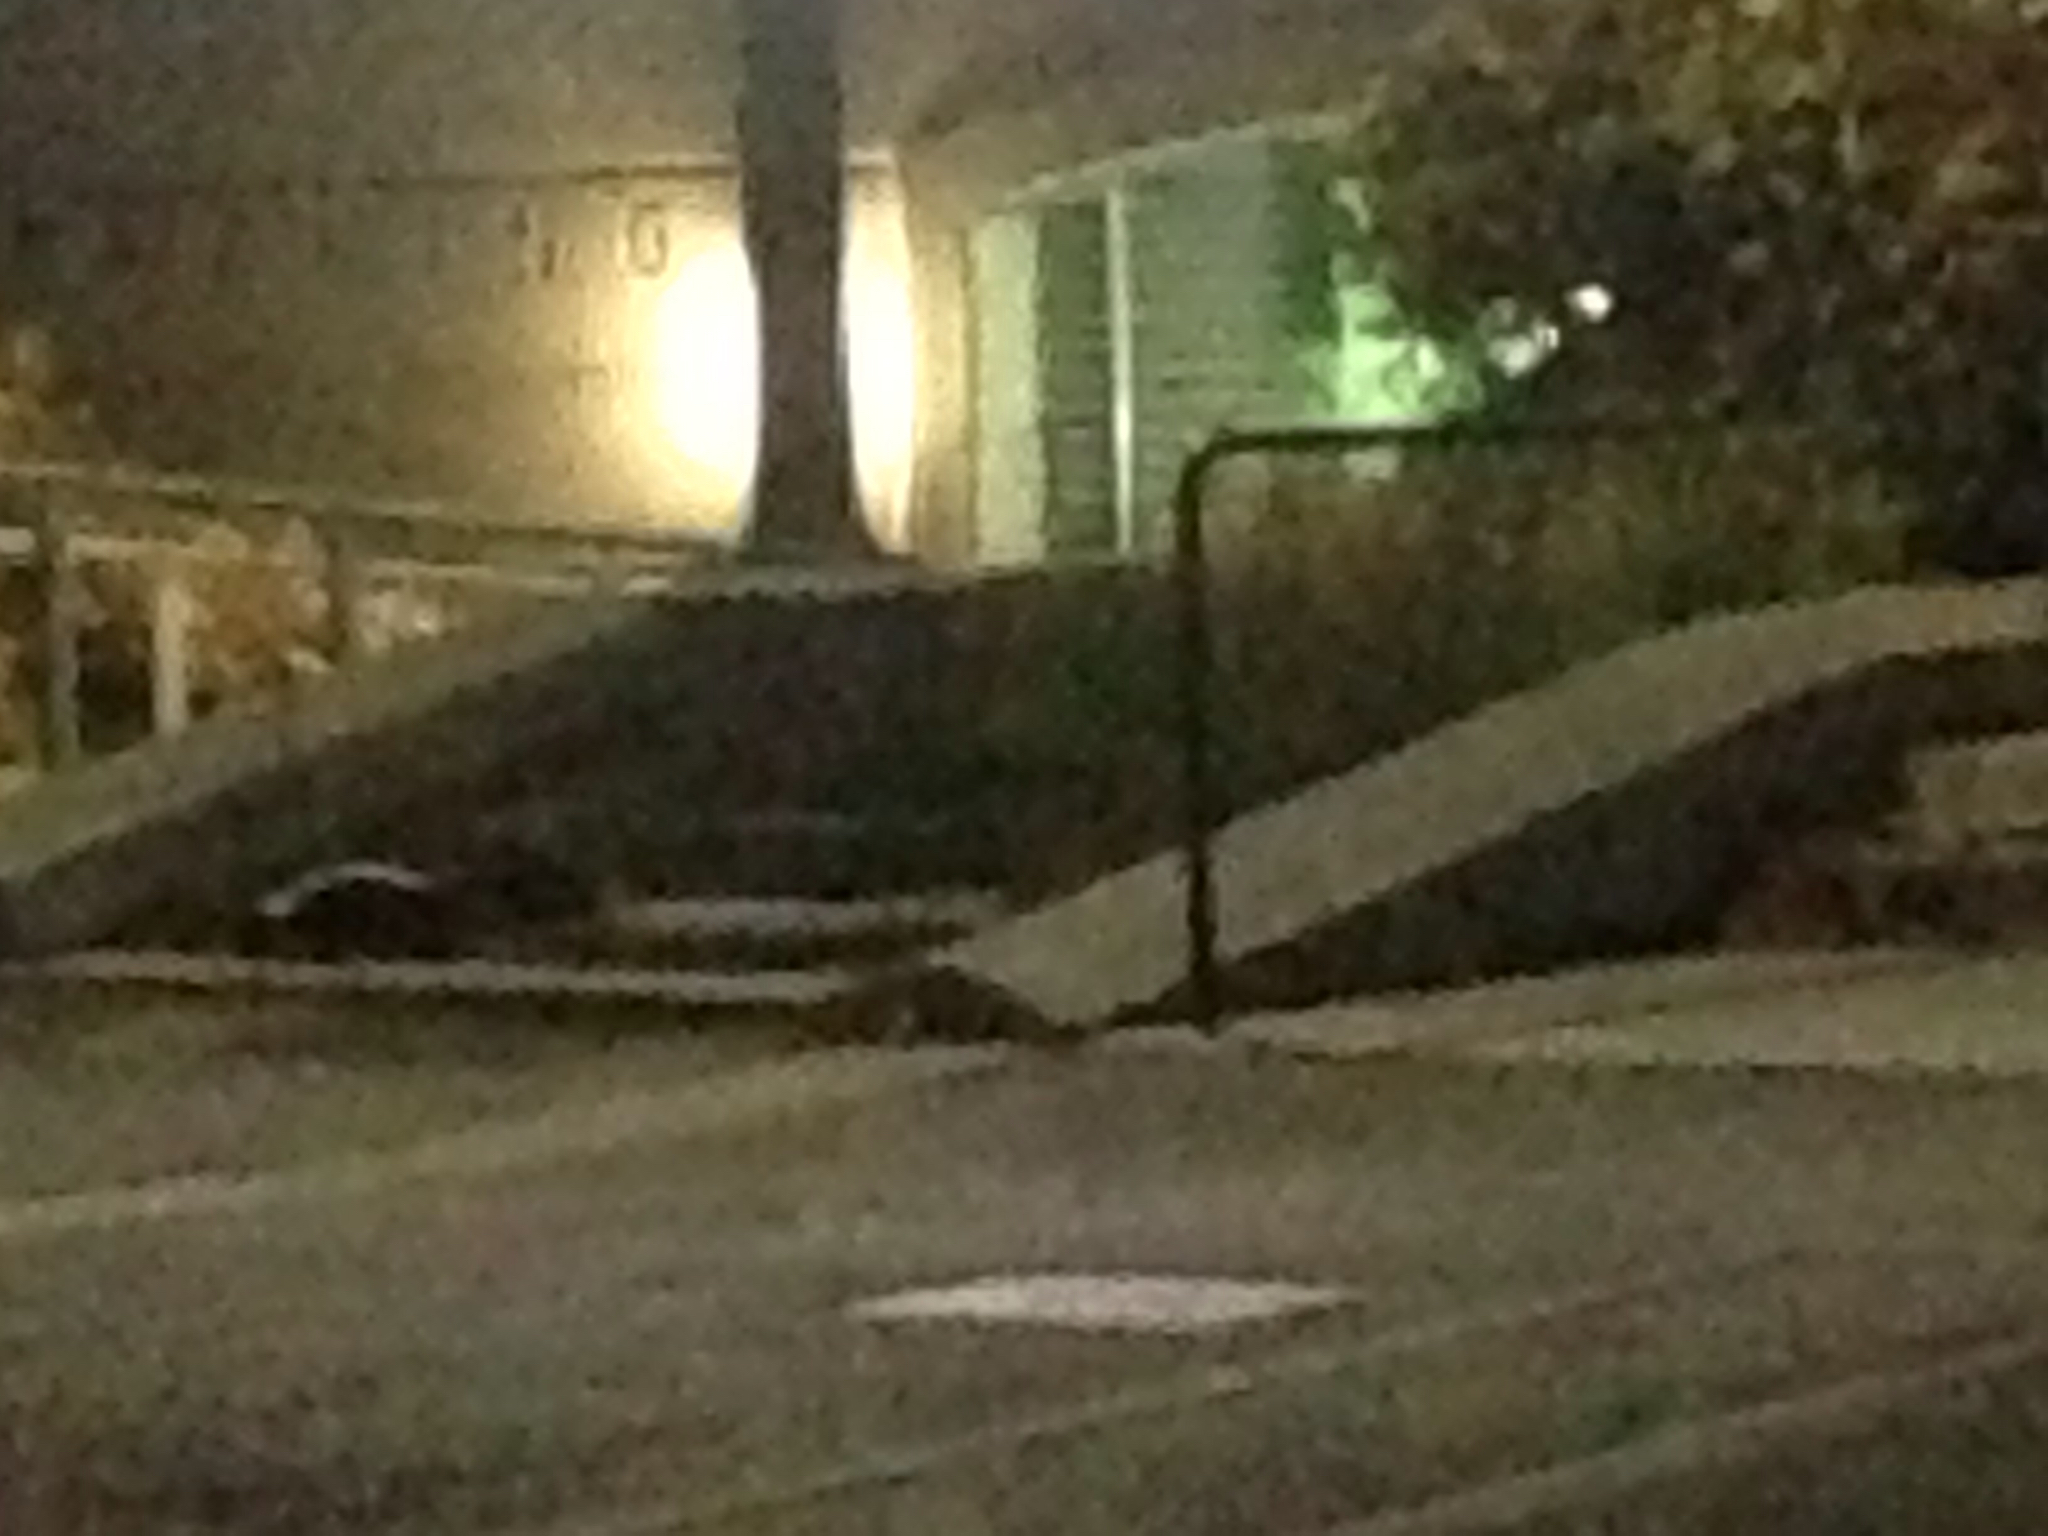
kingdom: Animalia
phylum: Chordata
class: Mammalia
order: Carnivora
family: Mephitidae
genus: Mephitis
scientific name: Mephitis mephitis
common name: Striped skunk
